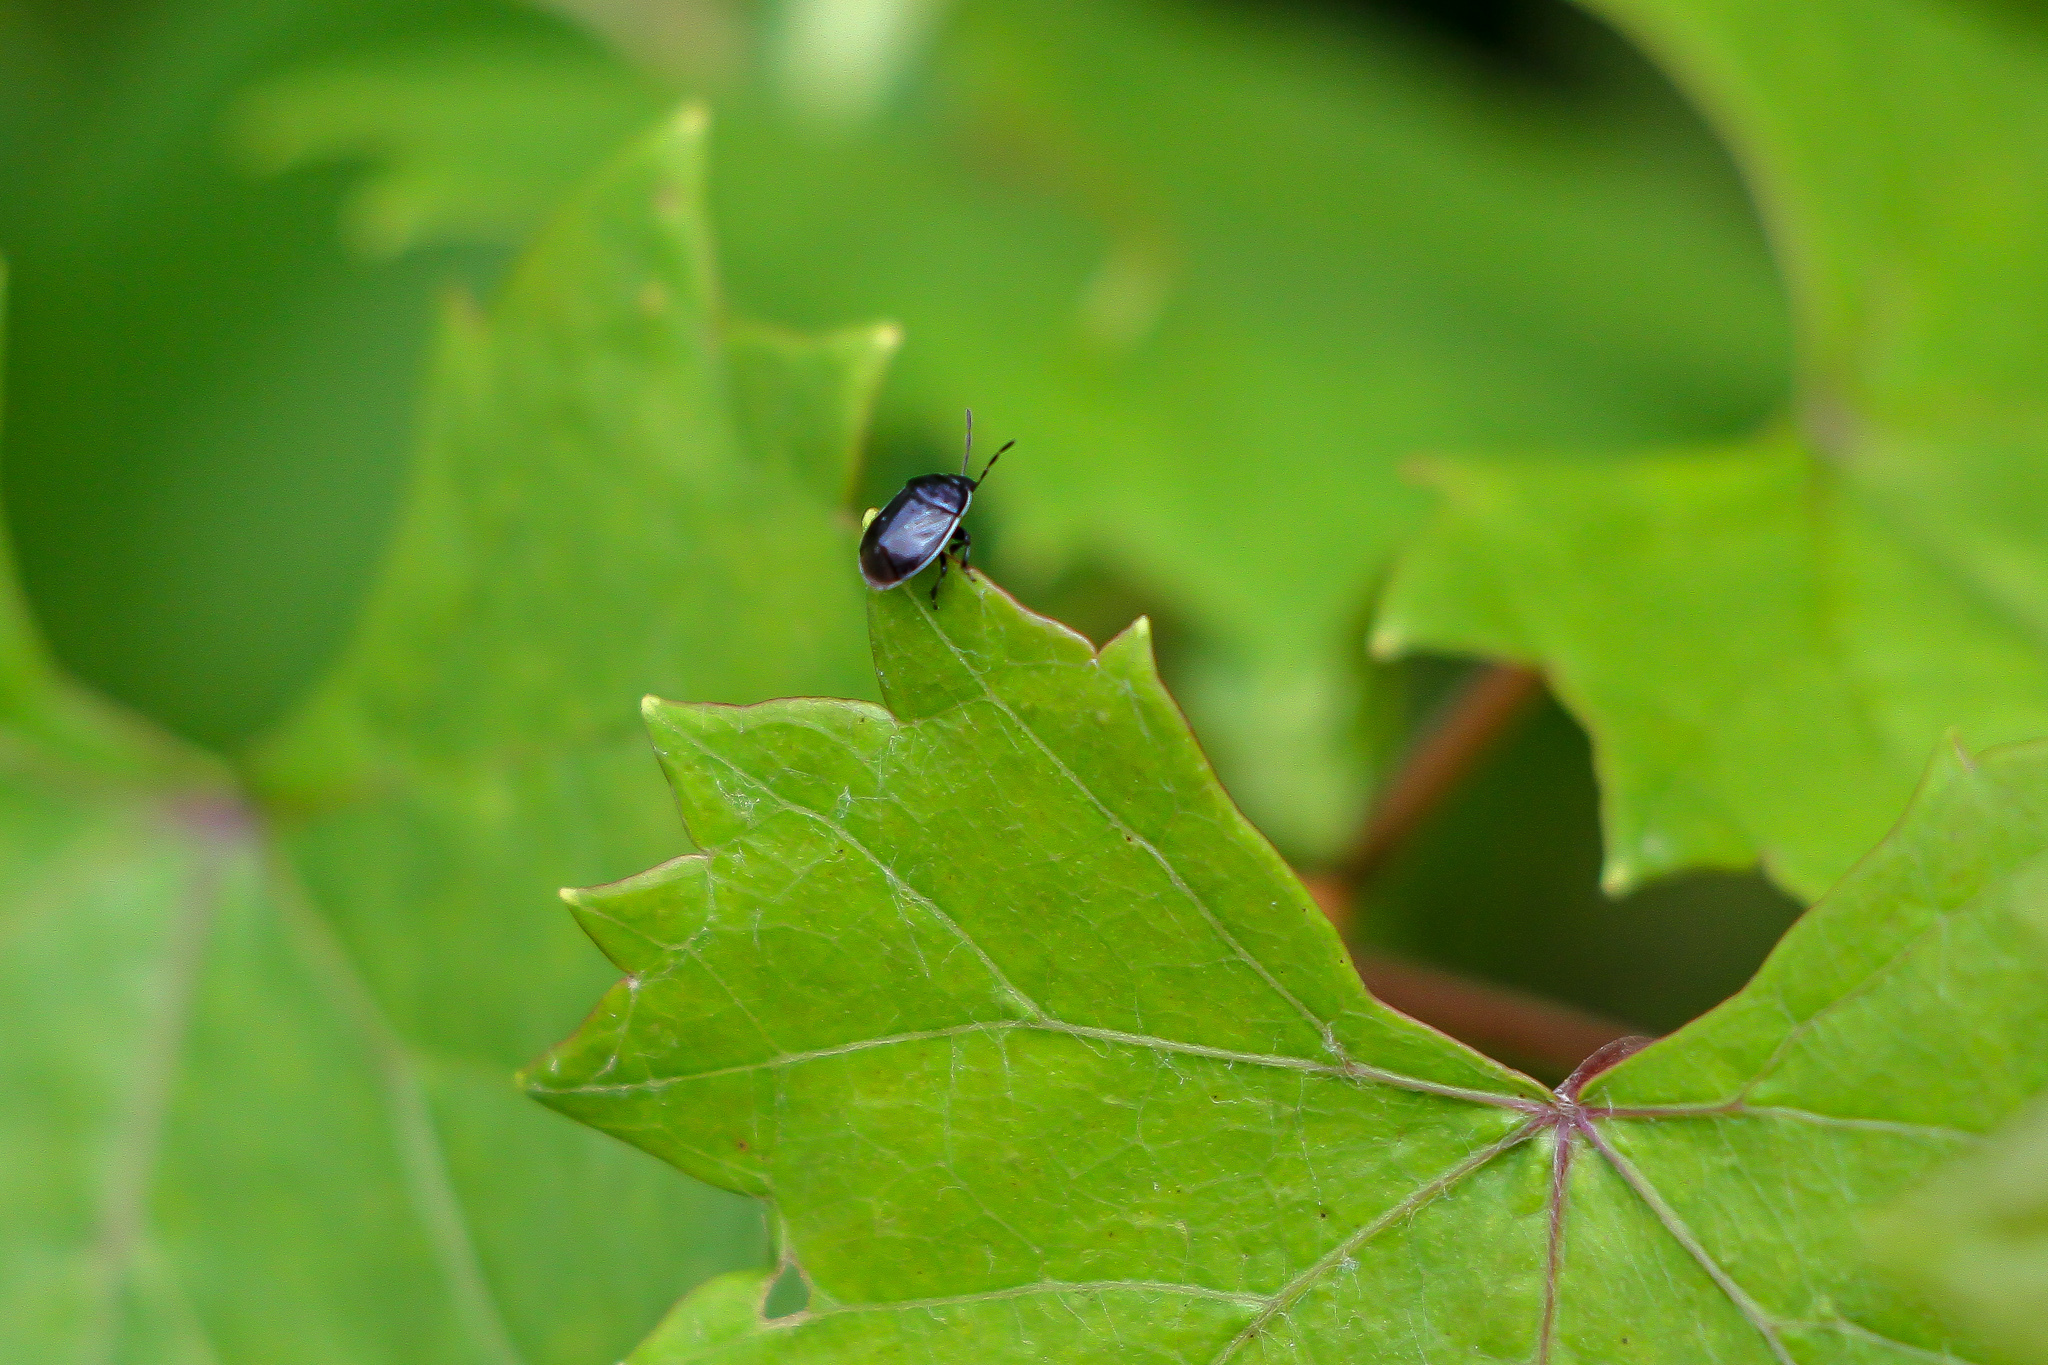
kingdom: Animalia
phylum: Arthropoda
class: Insecta
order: Hemiptera
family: Cydnidae
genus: Sehirus
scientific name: Sehirus cinctus
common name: White-margined burrower bug
